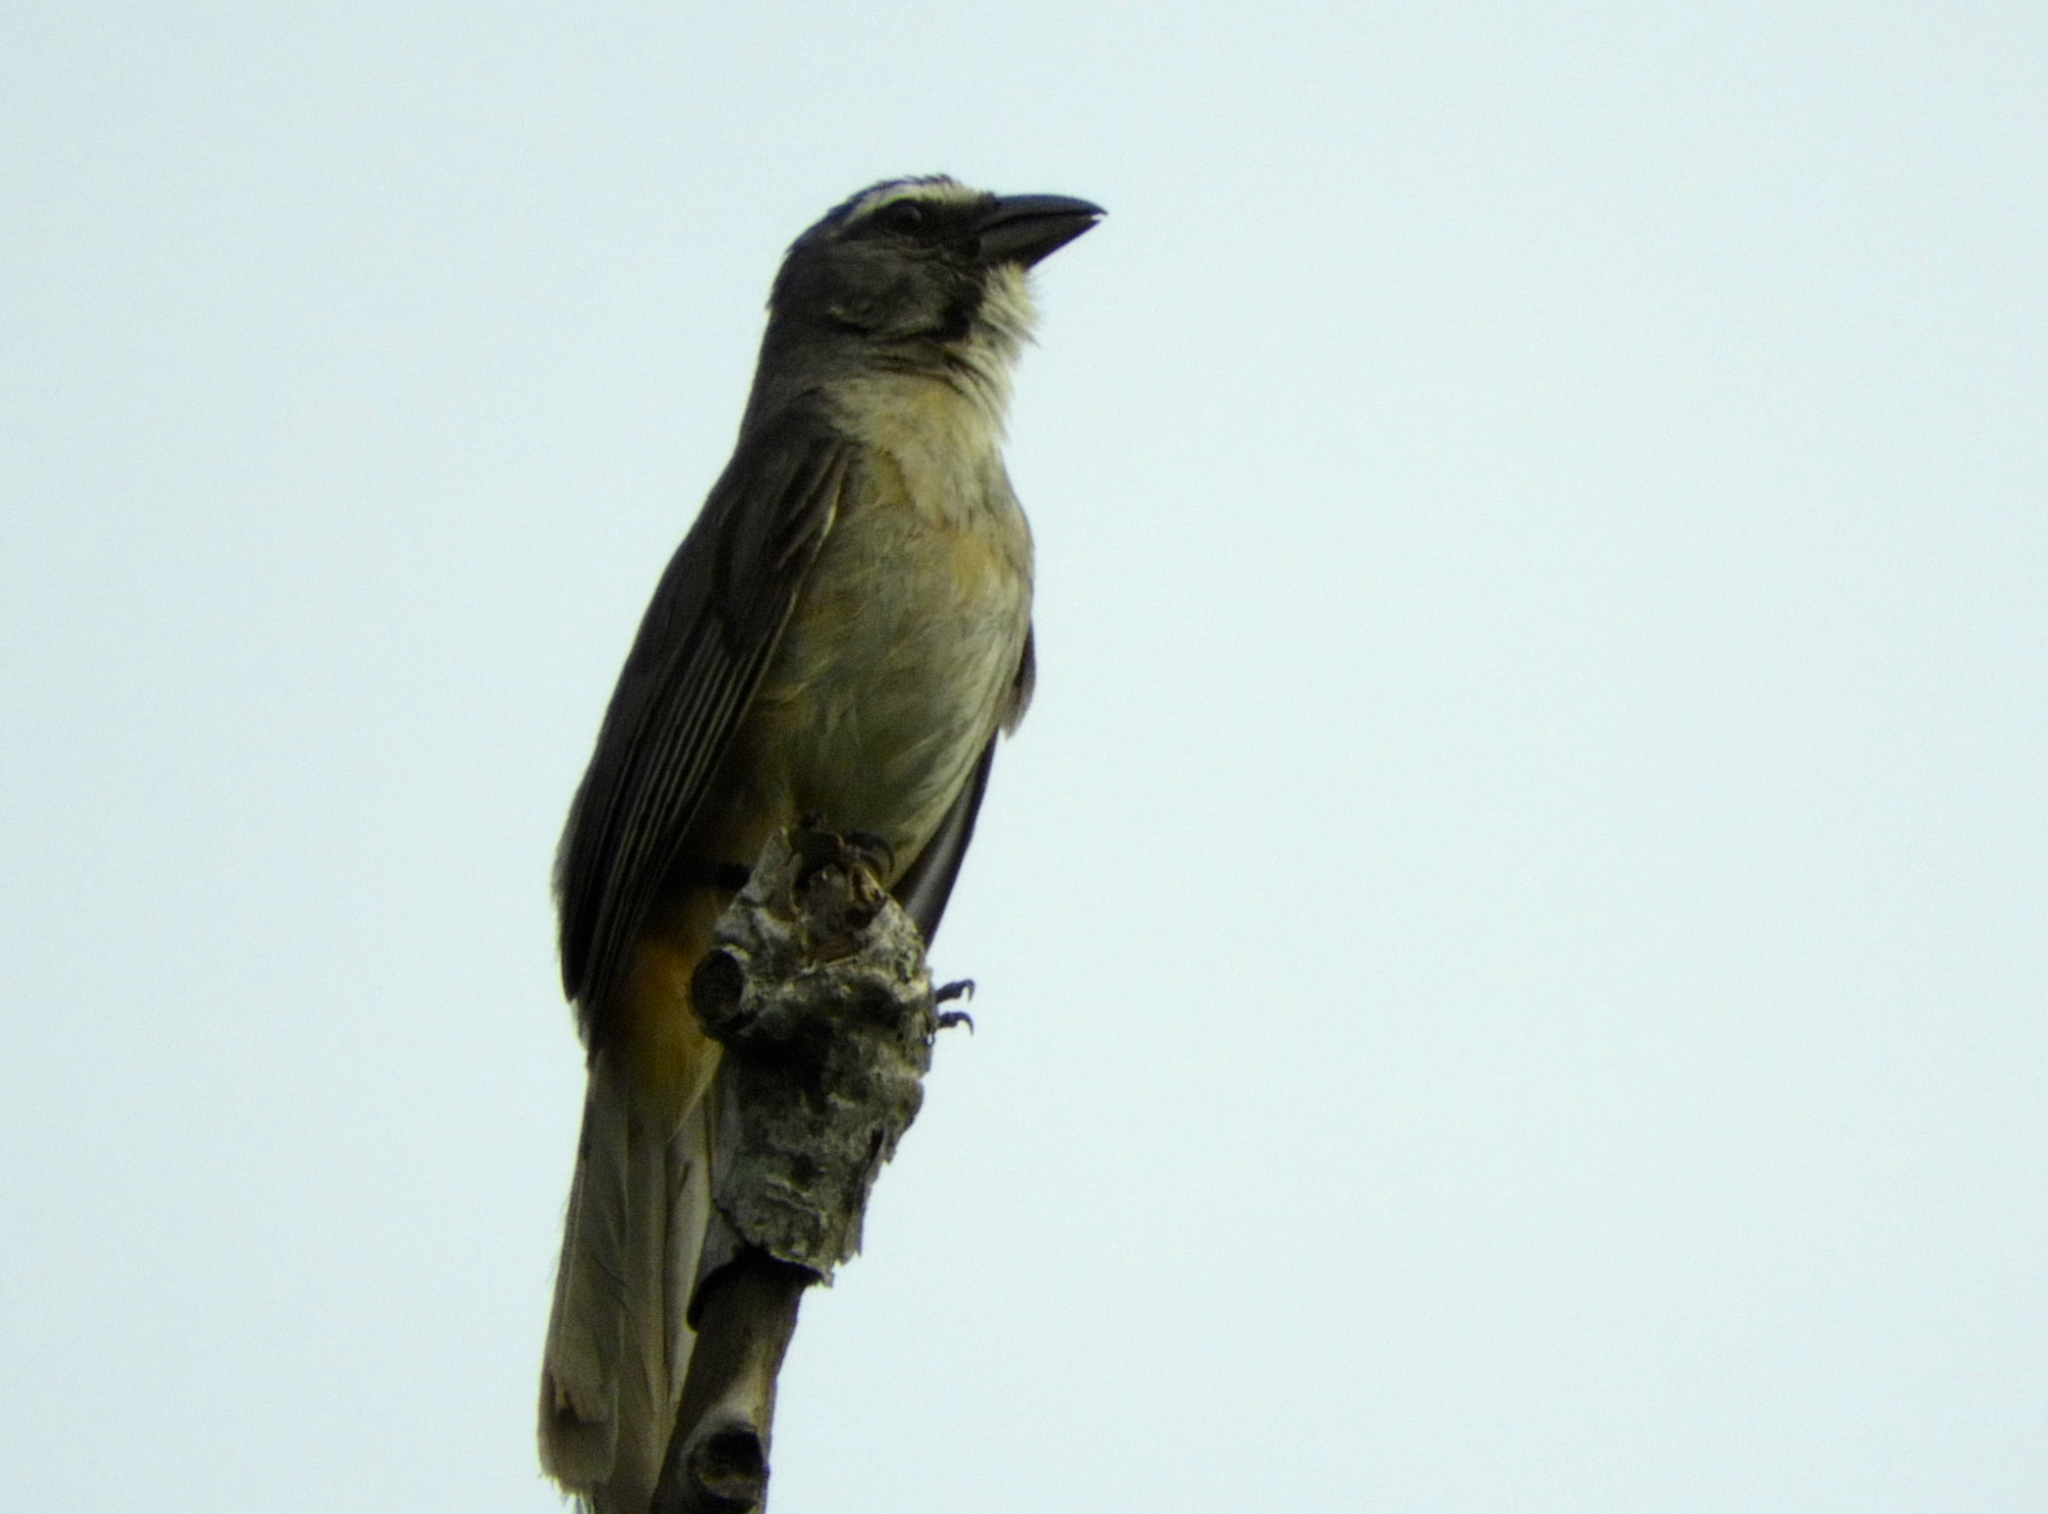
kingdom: Animalia
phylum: Chordata
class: Aves
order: Passeriformes
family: Thraupidae
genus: Saltator
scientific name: Saltator grandis
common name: Cinnamon-bellied saltator
